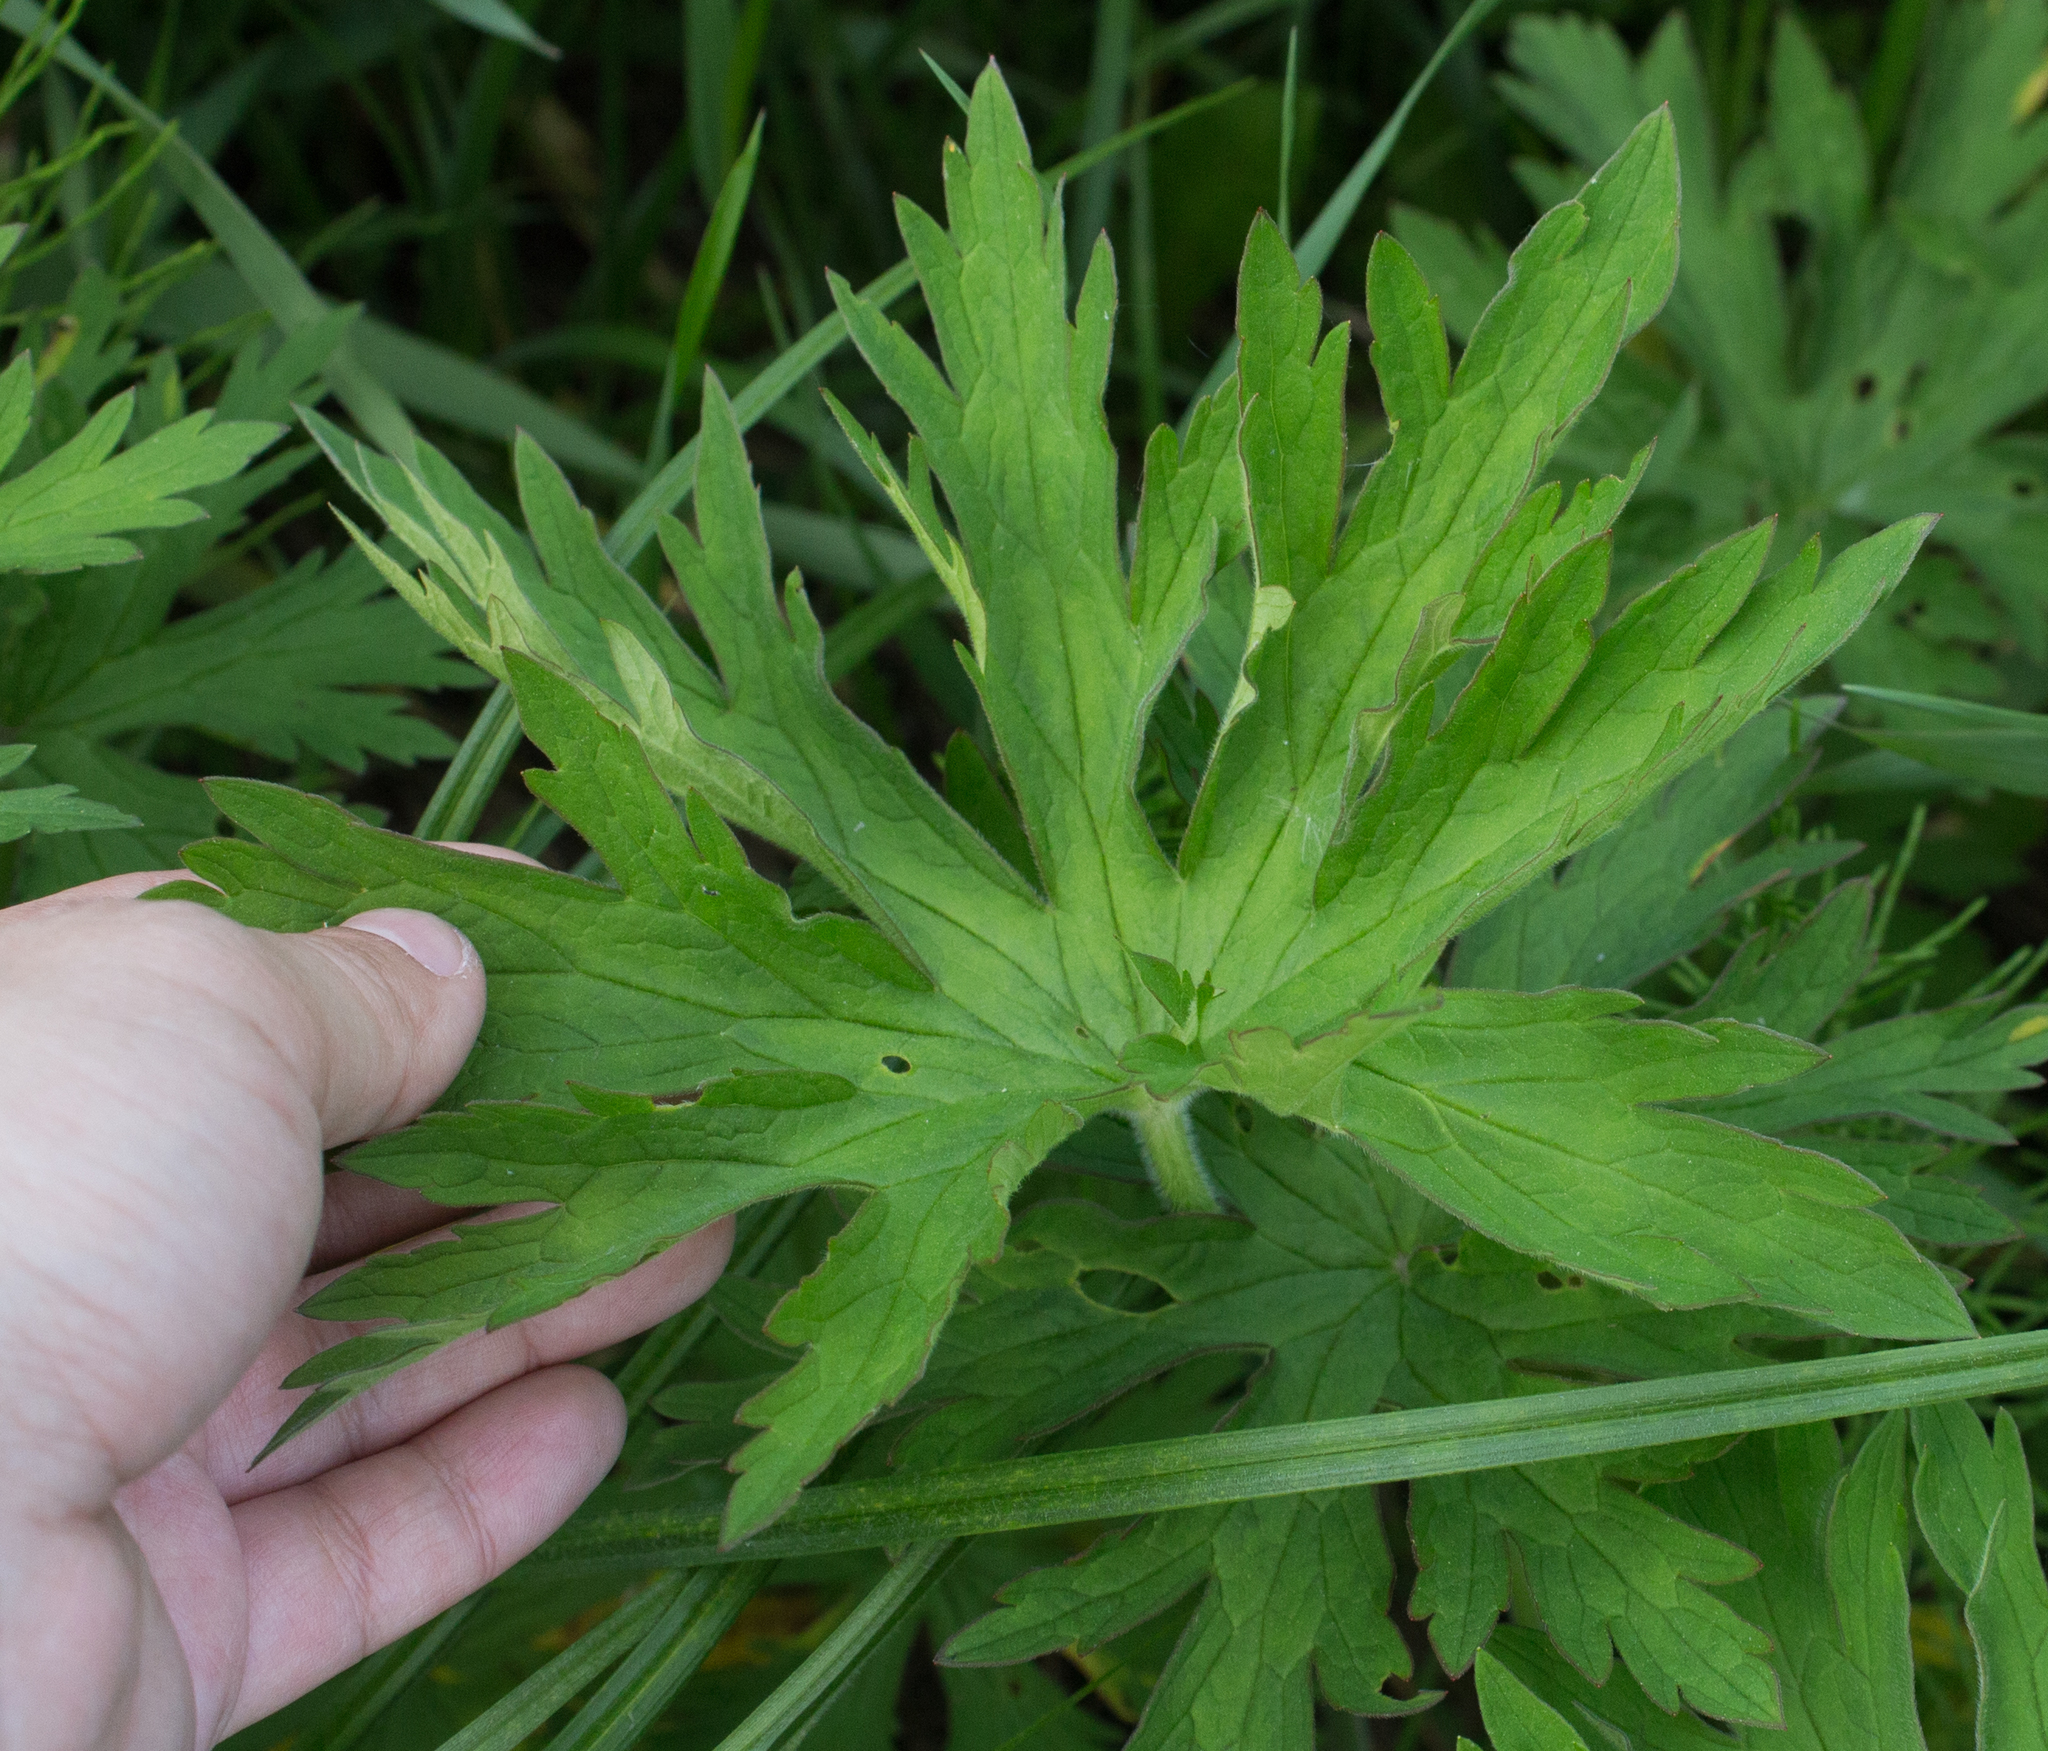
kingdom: Plantae
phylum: Tracheophyta
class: Magnoliopsida
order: Geraniales
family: Geraniaceae
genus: Geranium
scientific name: Geranium pratense
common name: Meadow crane's-bill
